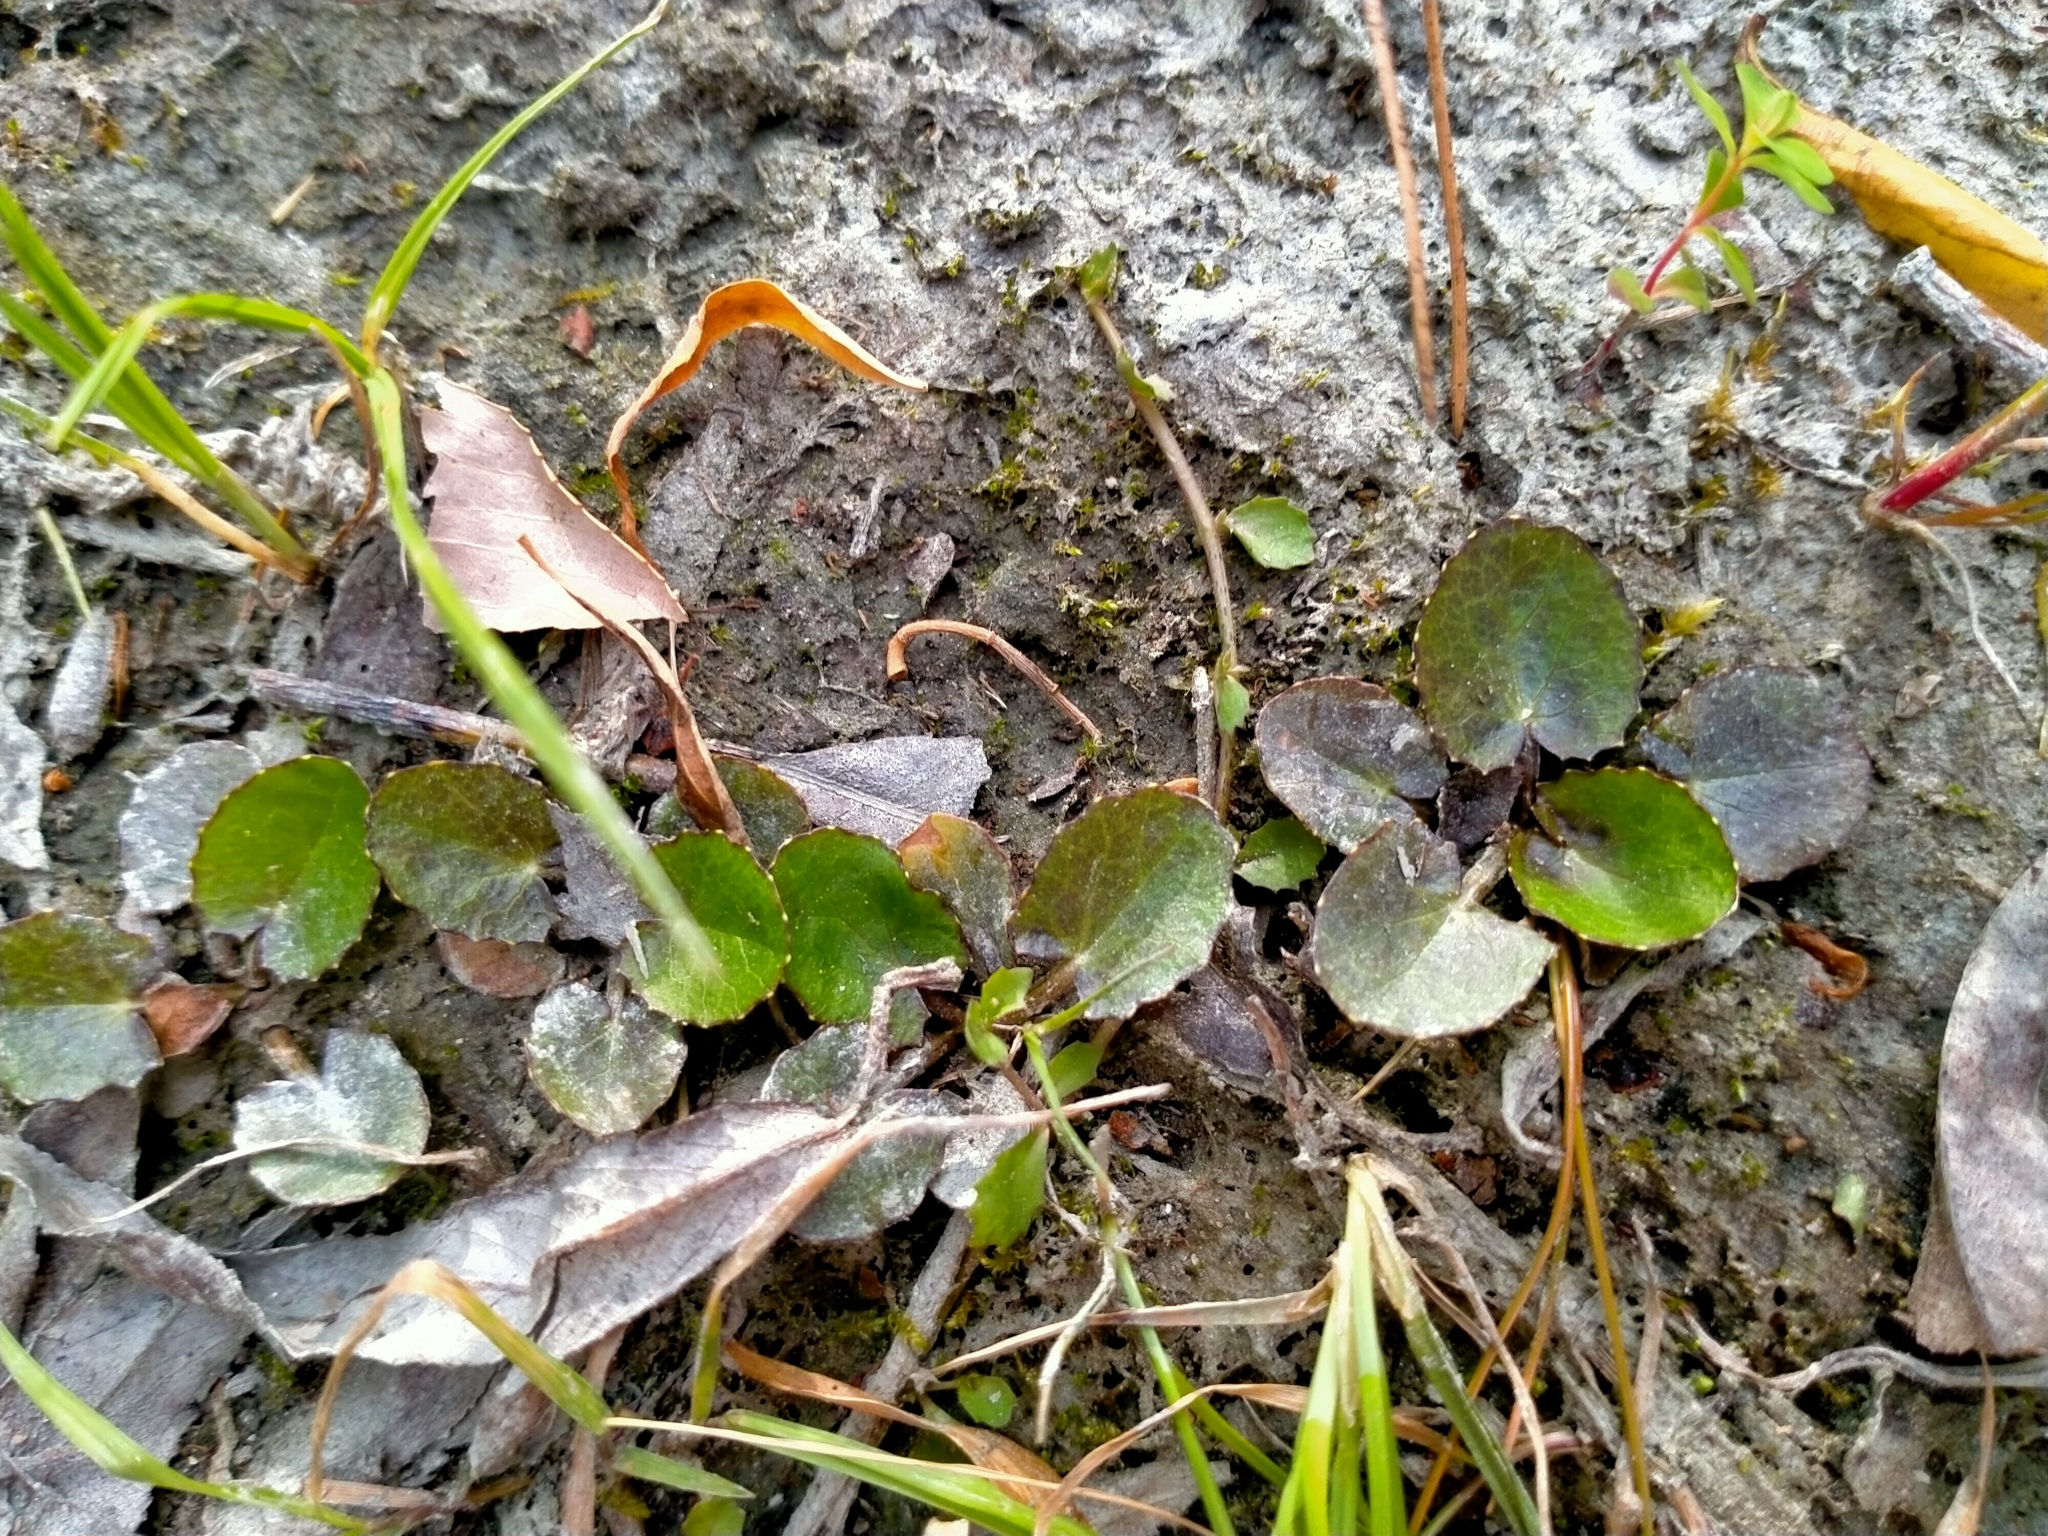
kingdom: Plantae
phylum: Tracheophyta
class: Magnoliopsida
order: Apiales
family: Apiaceae
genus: Centella
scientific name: Centella uniflora
